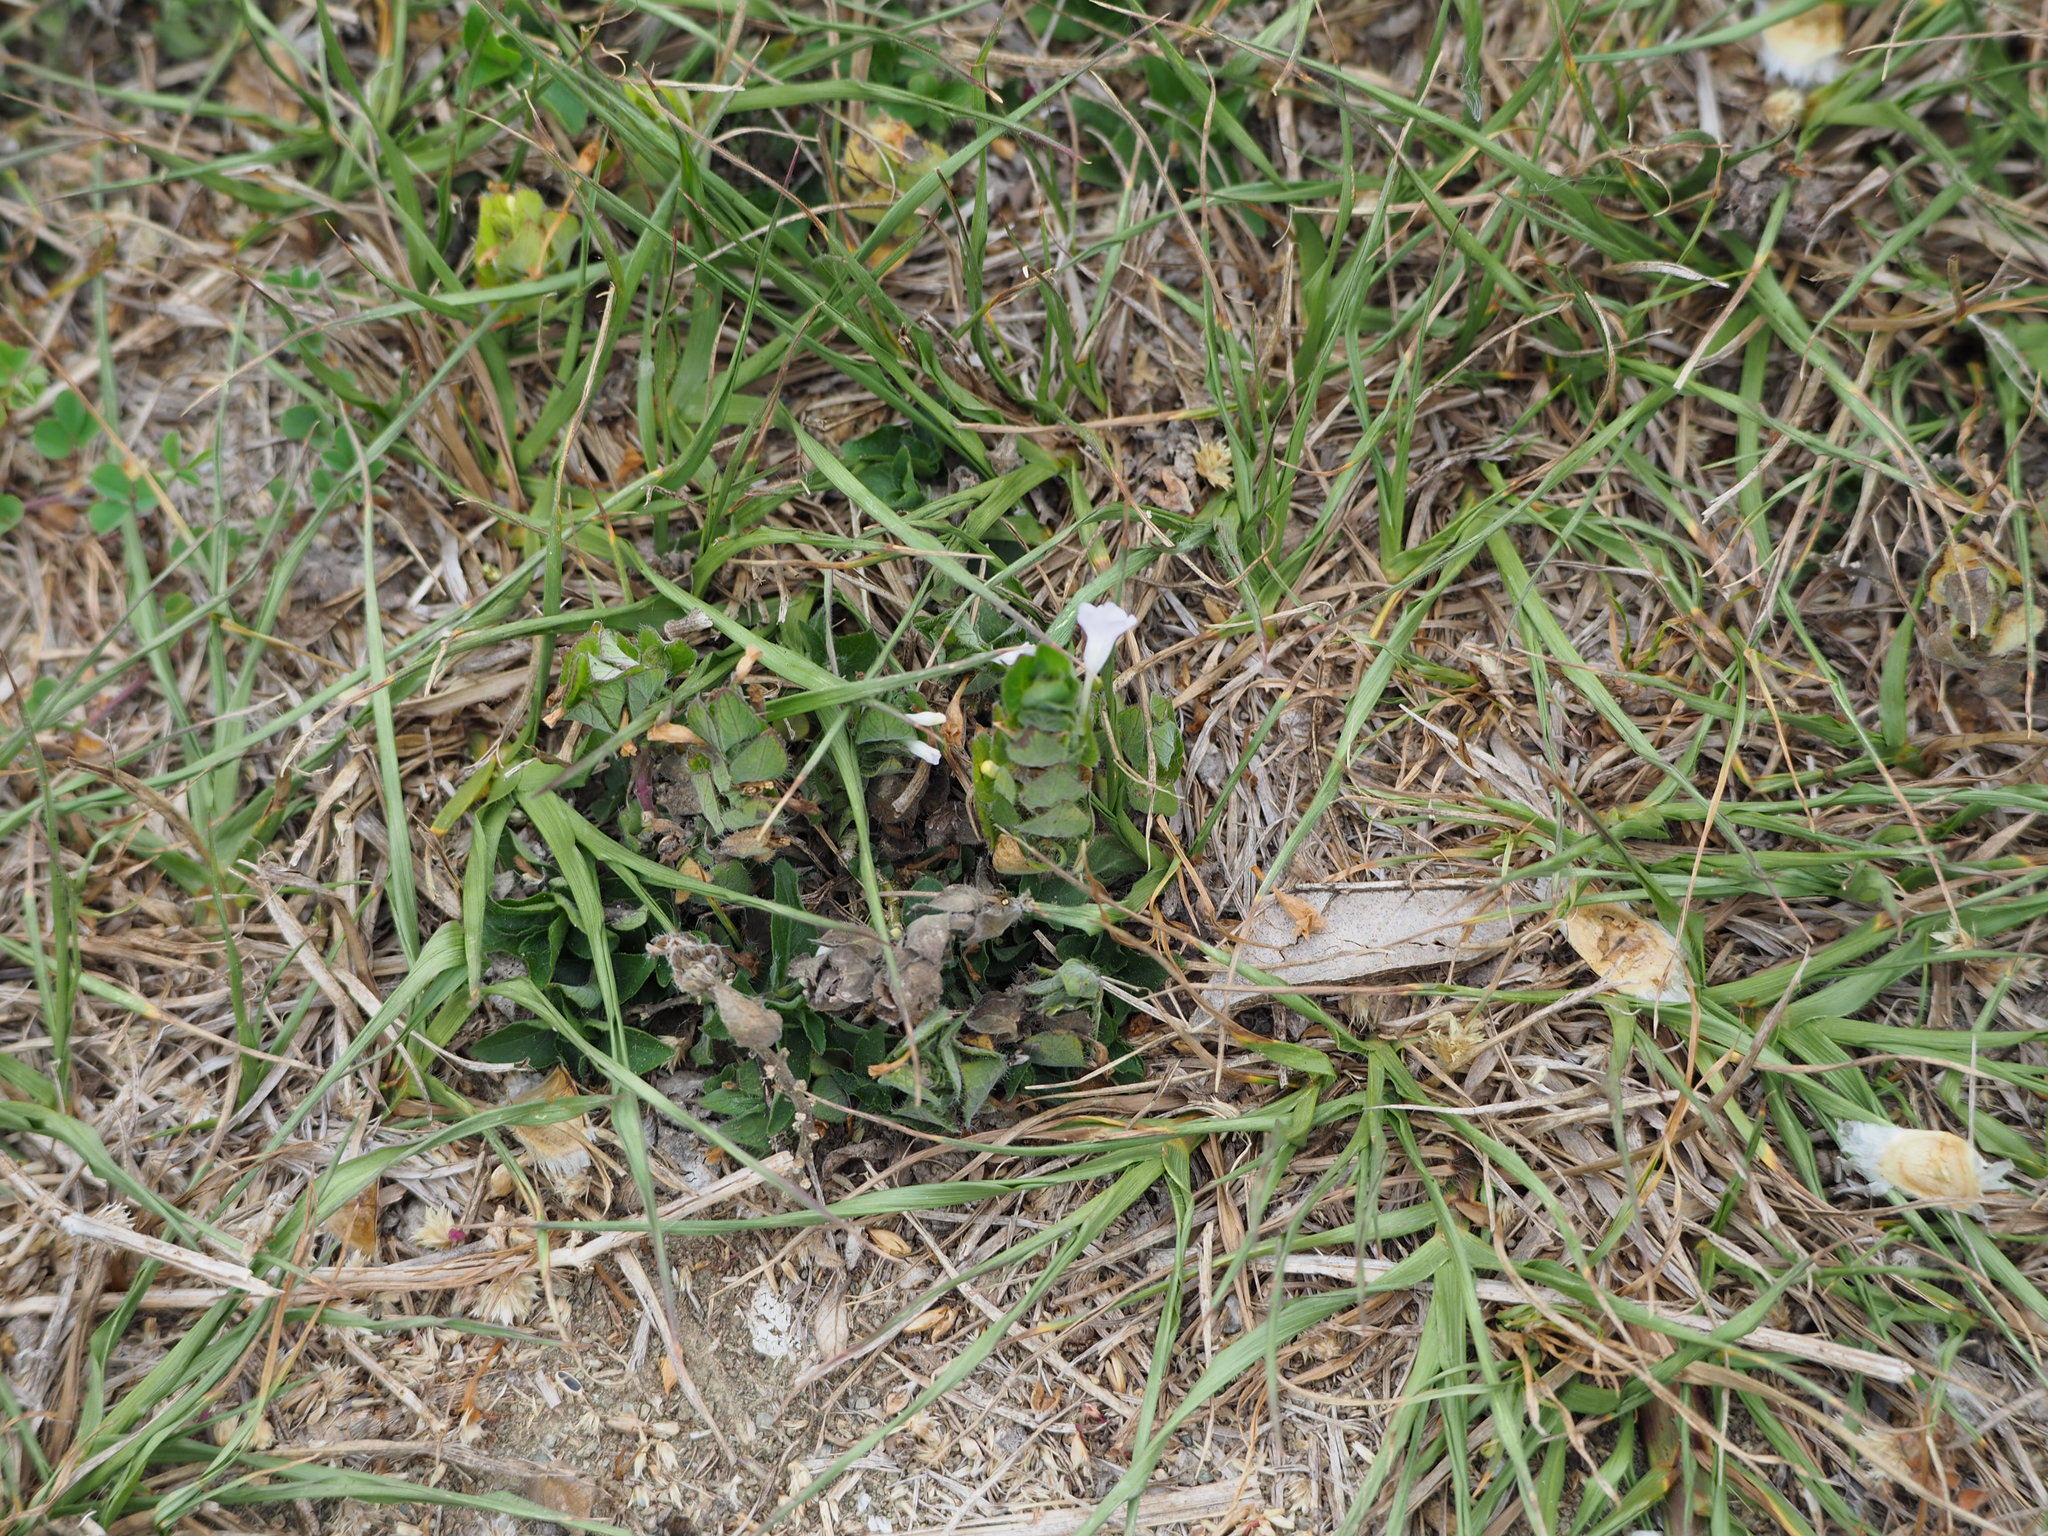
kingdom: Plantae
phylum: Tracheophyta
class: Magnoliopsida
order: Lamiales
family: Acanthaceae
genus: Ruellia
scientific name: Ruellia blechum
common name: Browne's blechum
